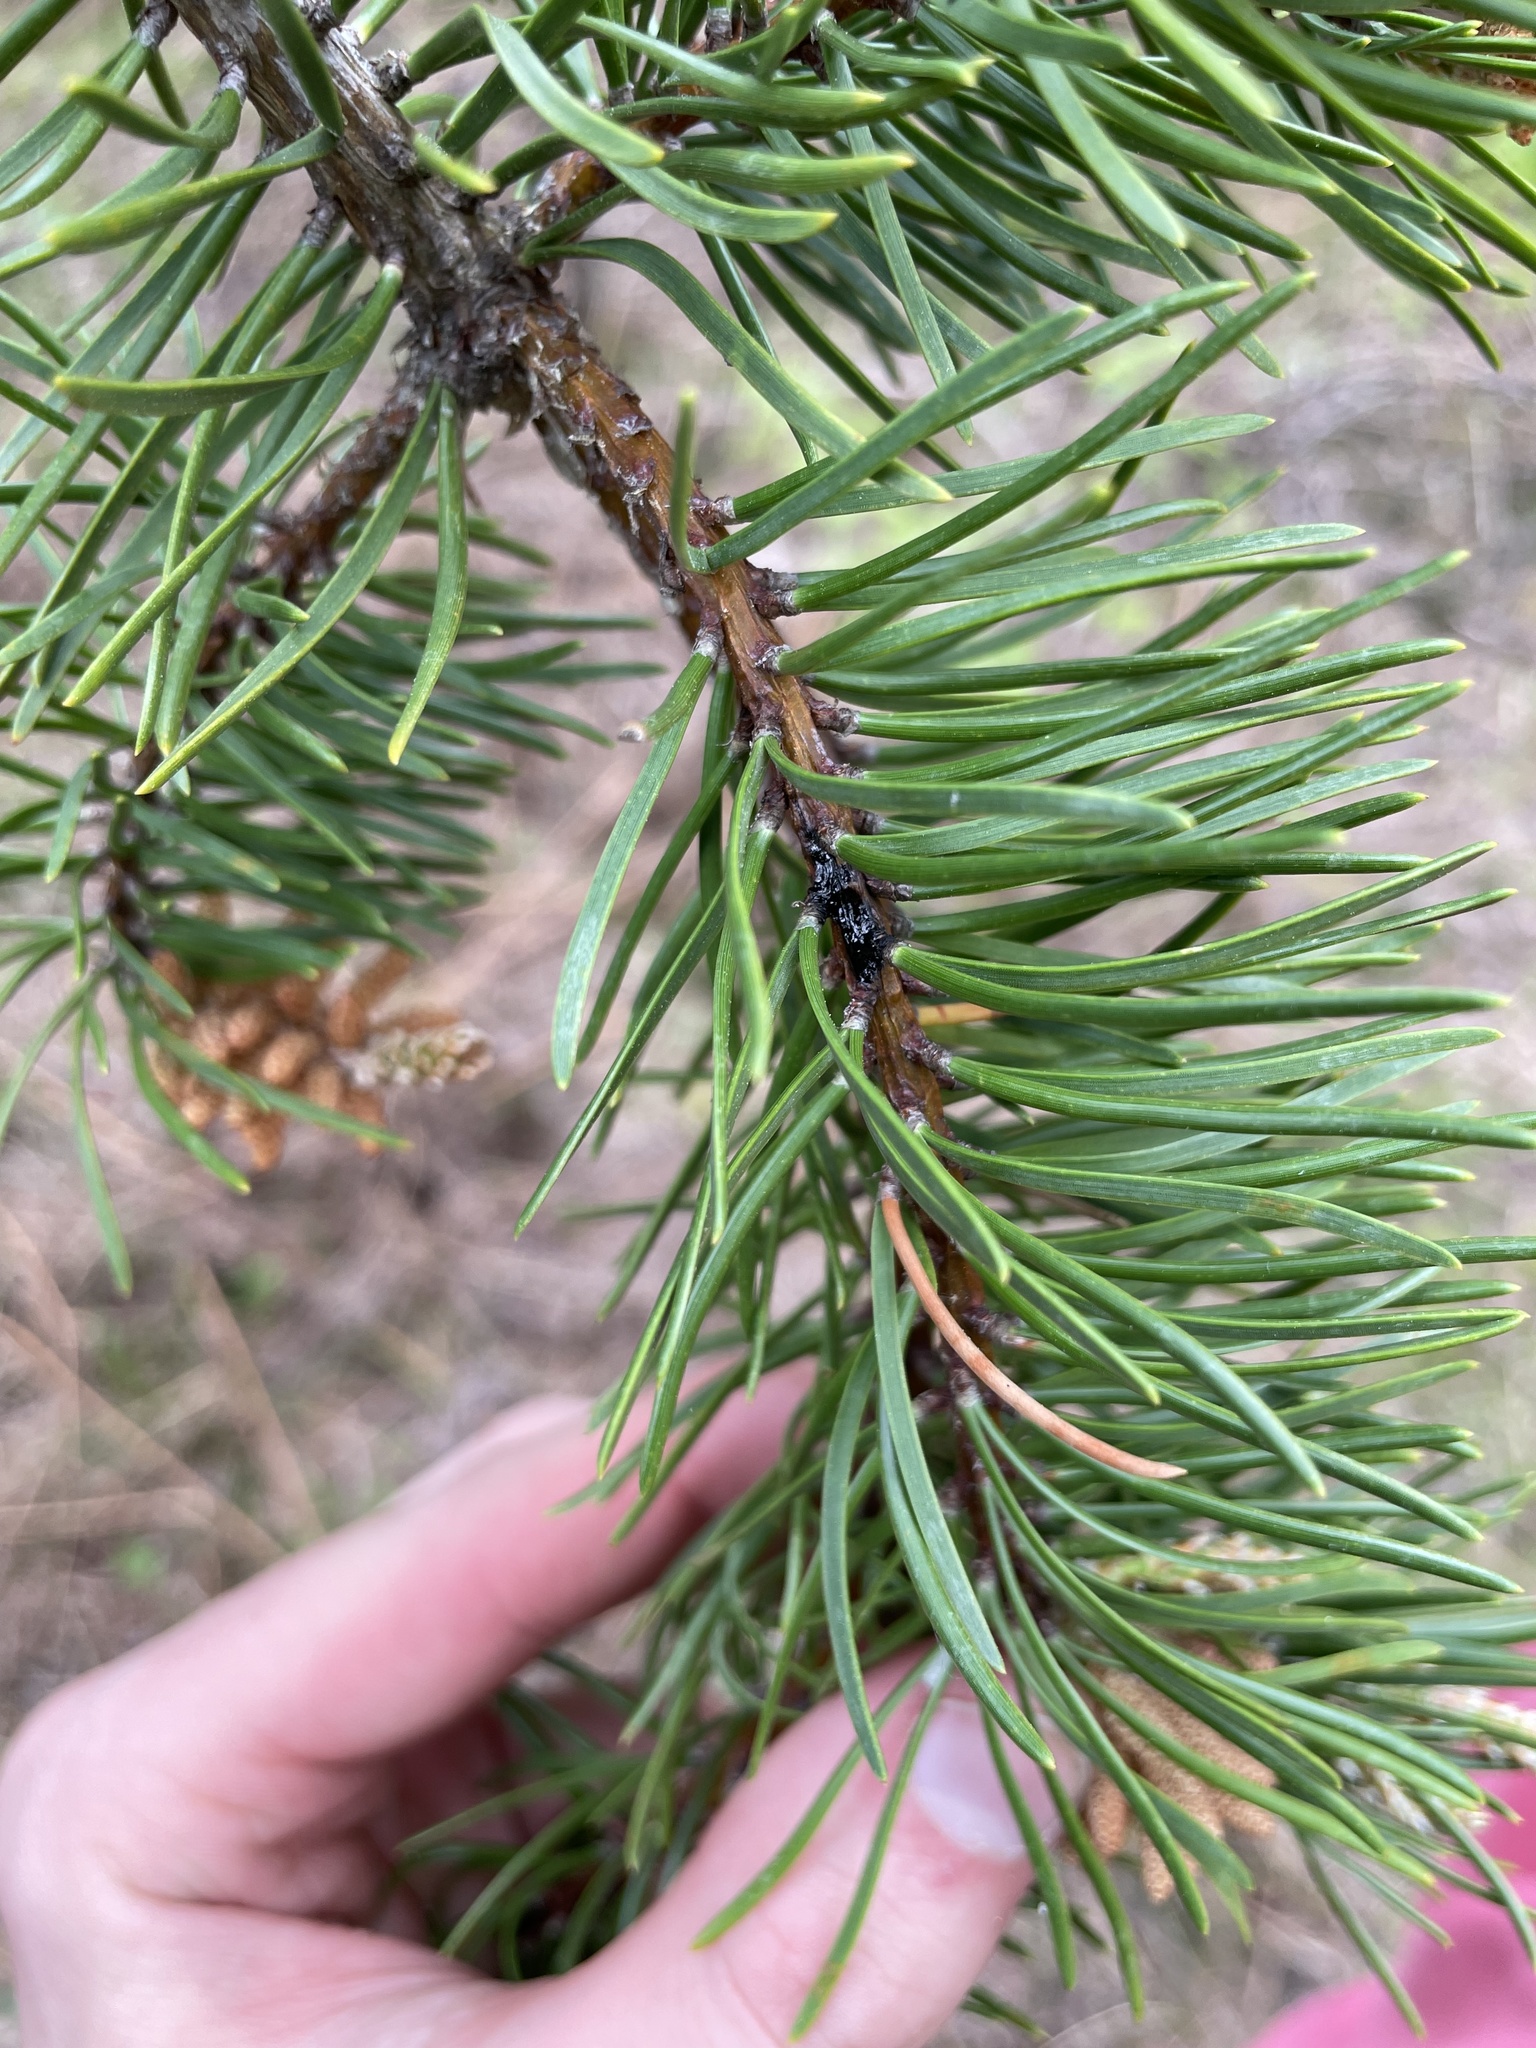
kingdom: Plantae
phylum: Tracheophyta
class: Pinopsida
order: Pinales
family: Pinaceae
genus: Pinus
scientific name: Pinus banksiana
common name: Jack pine
